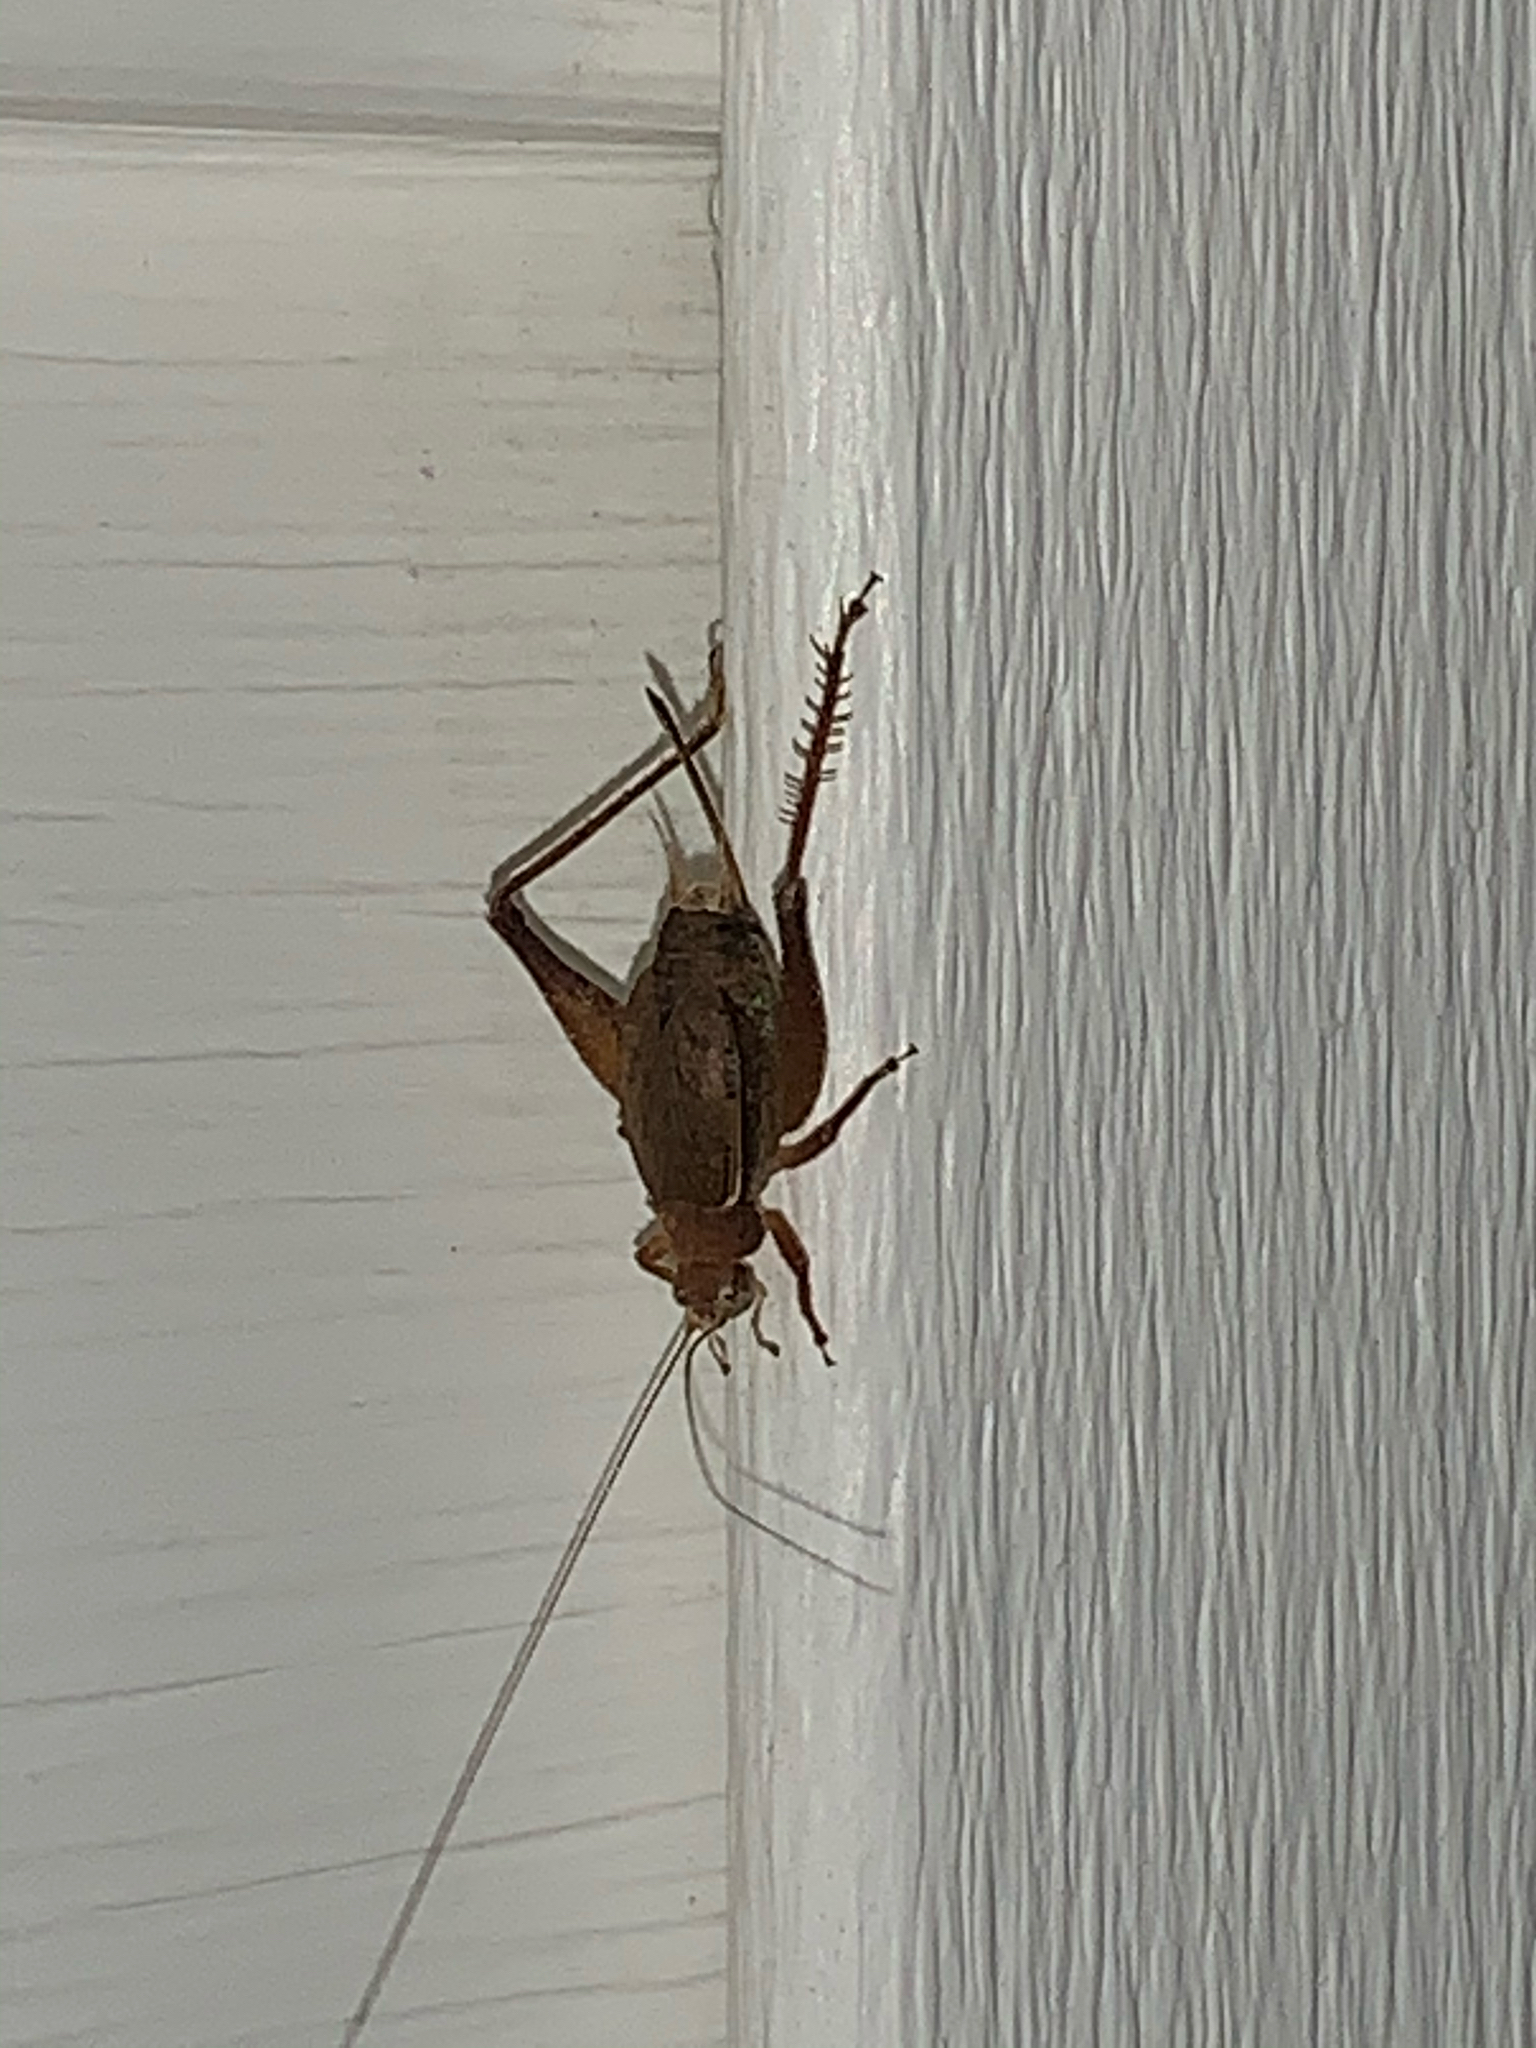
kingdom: Animalia
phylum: Arthropoda
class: Insecta
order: Orthoptera
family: Gryllidae
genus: Hapithus
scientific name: Hapithus agitator
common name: Restless bush cricket
